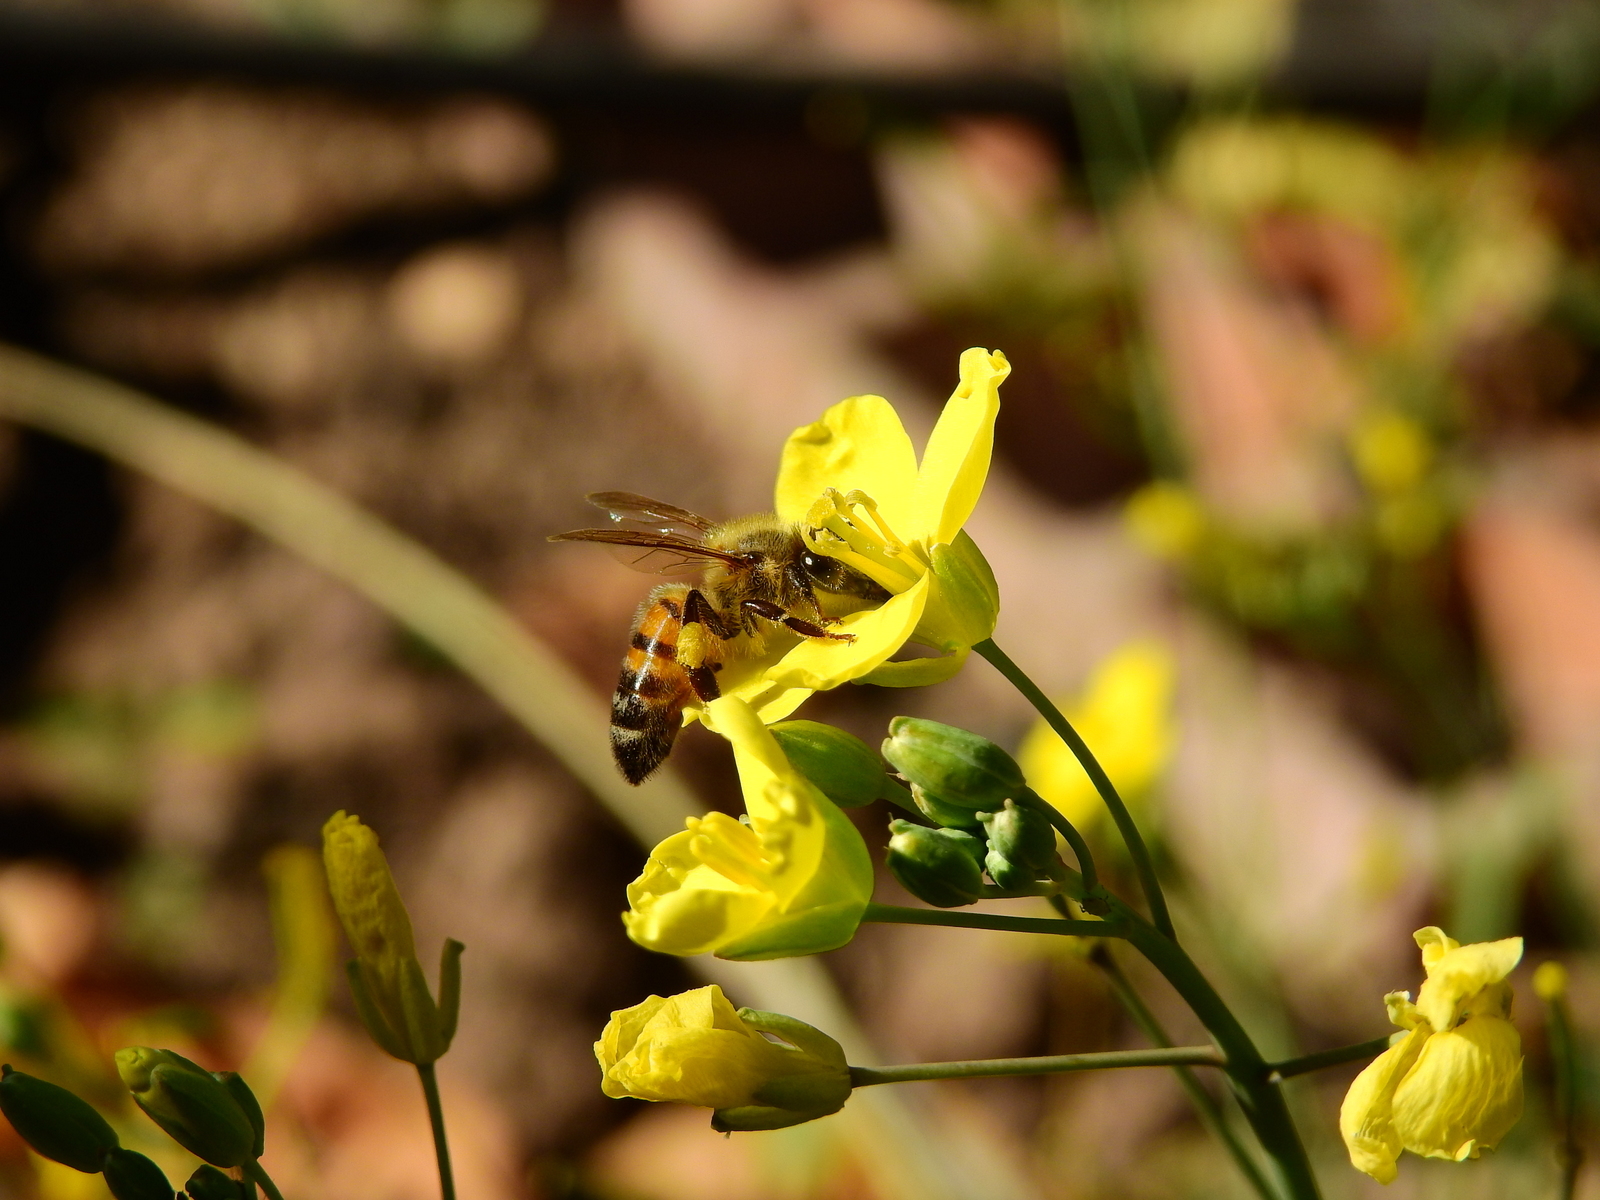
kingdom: Plantae
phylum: Tracheophyta
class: Magnoliopsida
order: Brassicales
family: Brassicaceae
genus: Diplotaxis
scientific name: Diplotaxis tenuifolia
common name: Perennial wall-rocket
